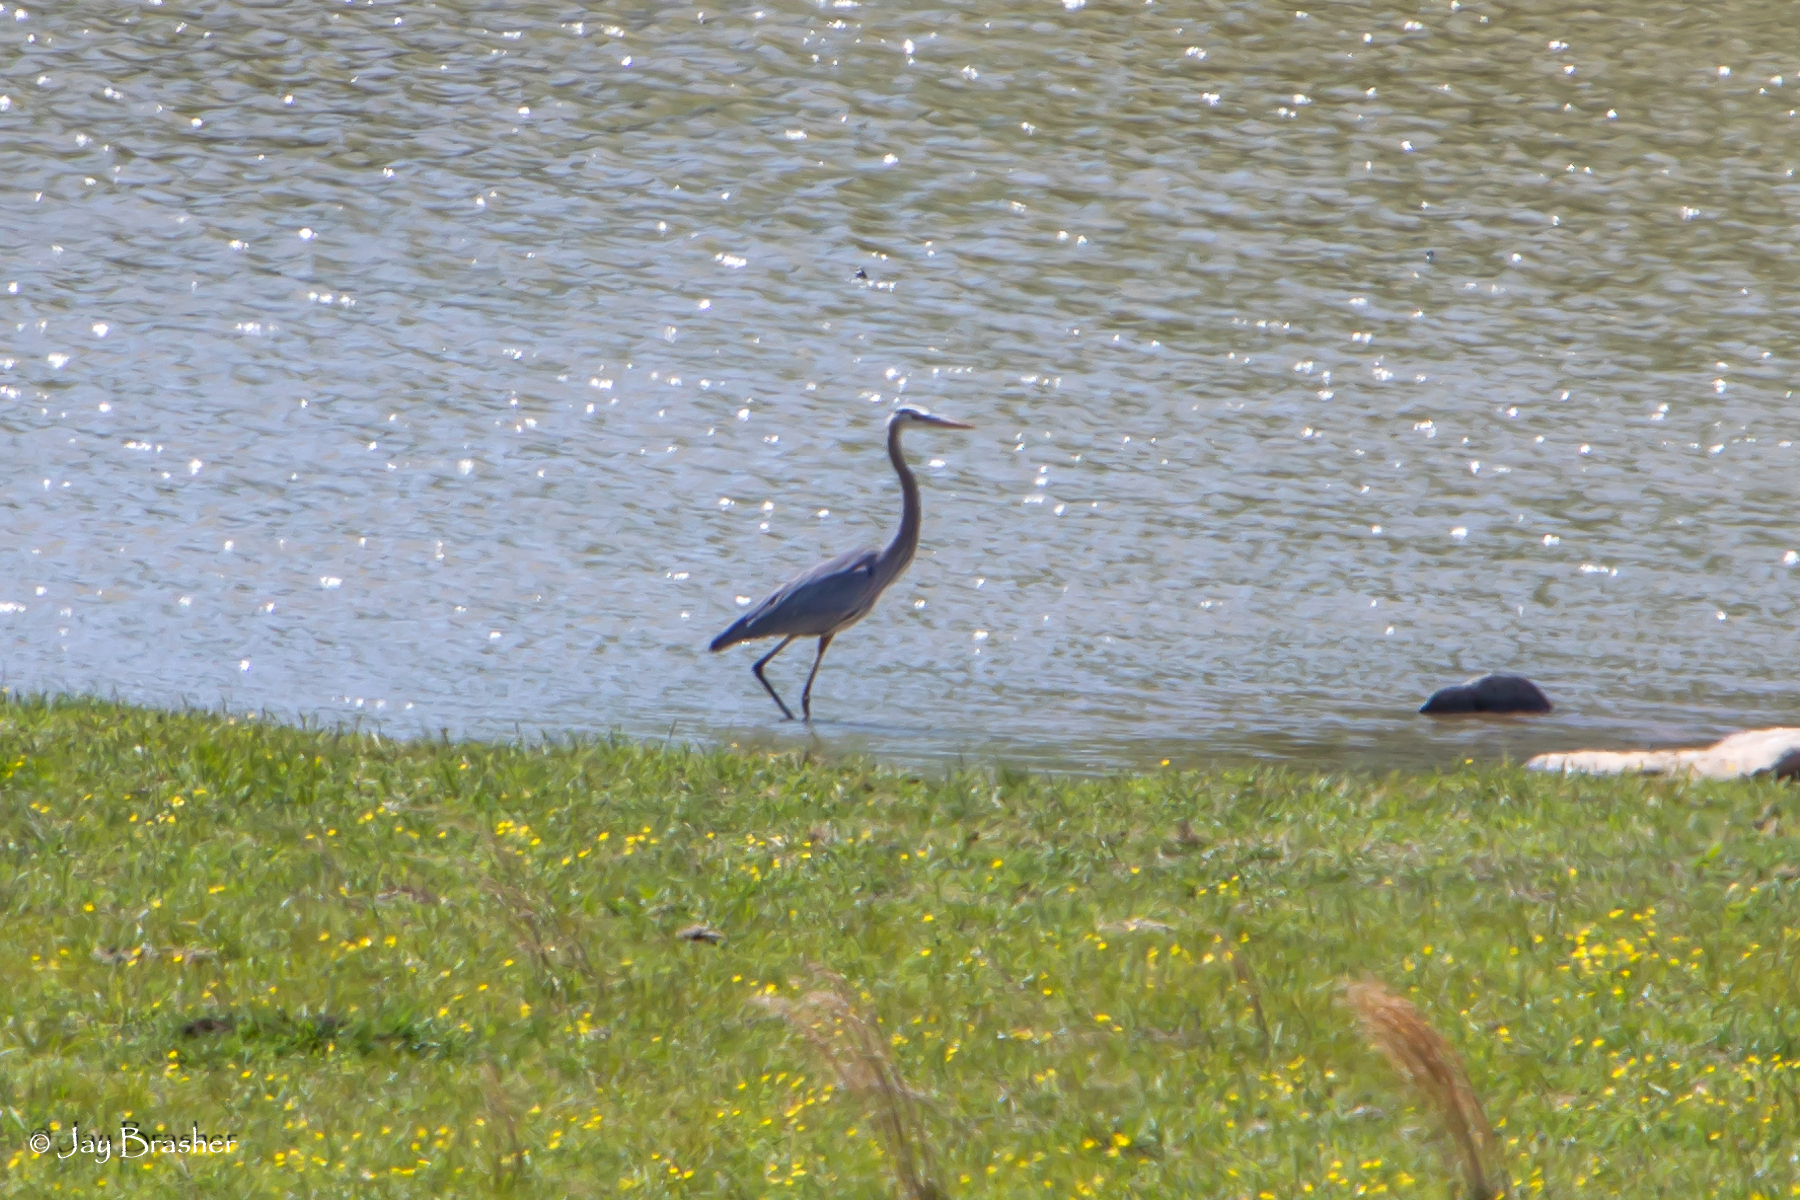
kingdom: Animalia
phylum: Chordata
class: Aves
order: Pelecaniformes
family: Ardeidae
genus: Ardea
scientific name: Ardea herodias
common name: Great blue heron
